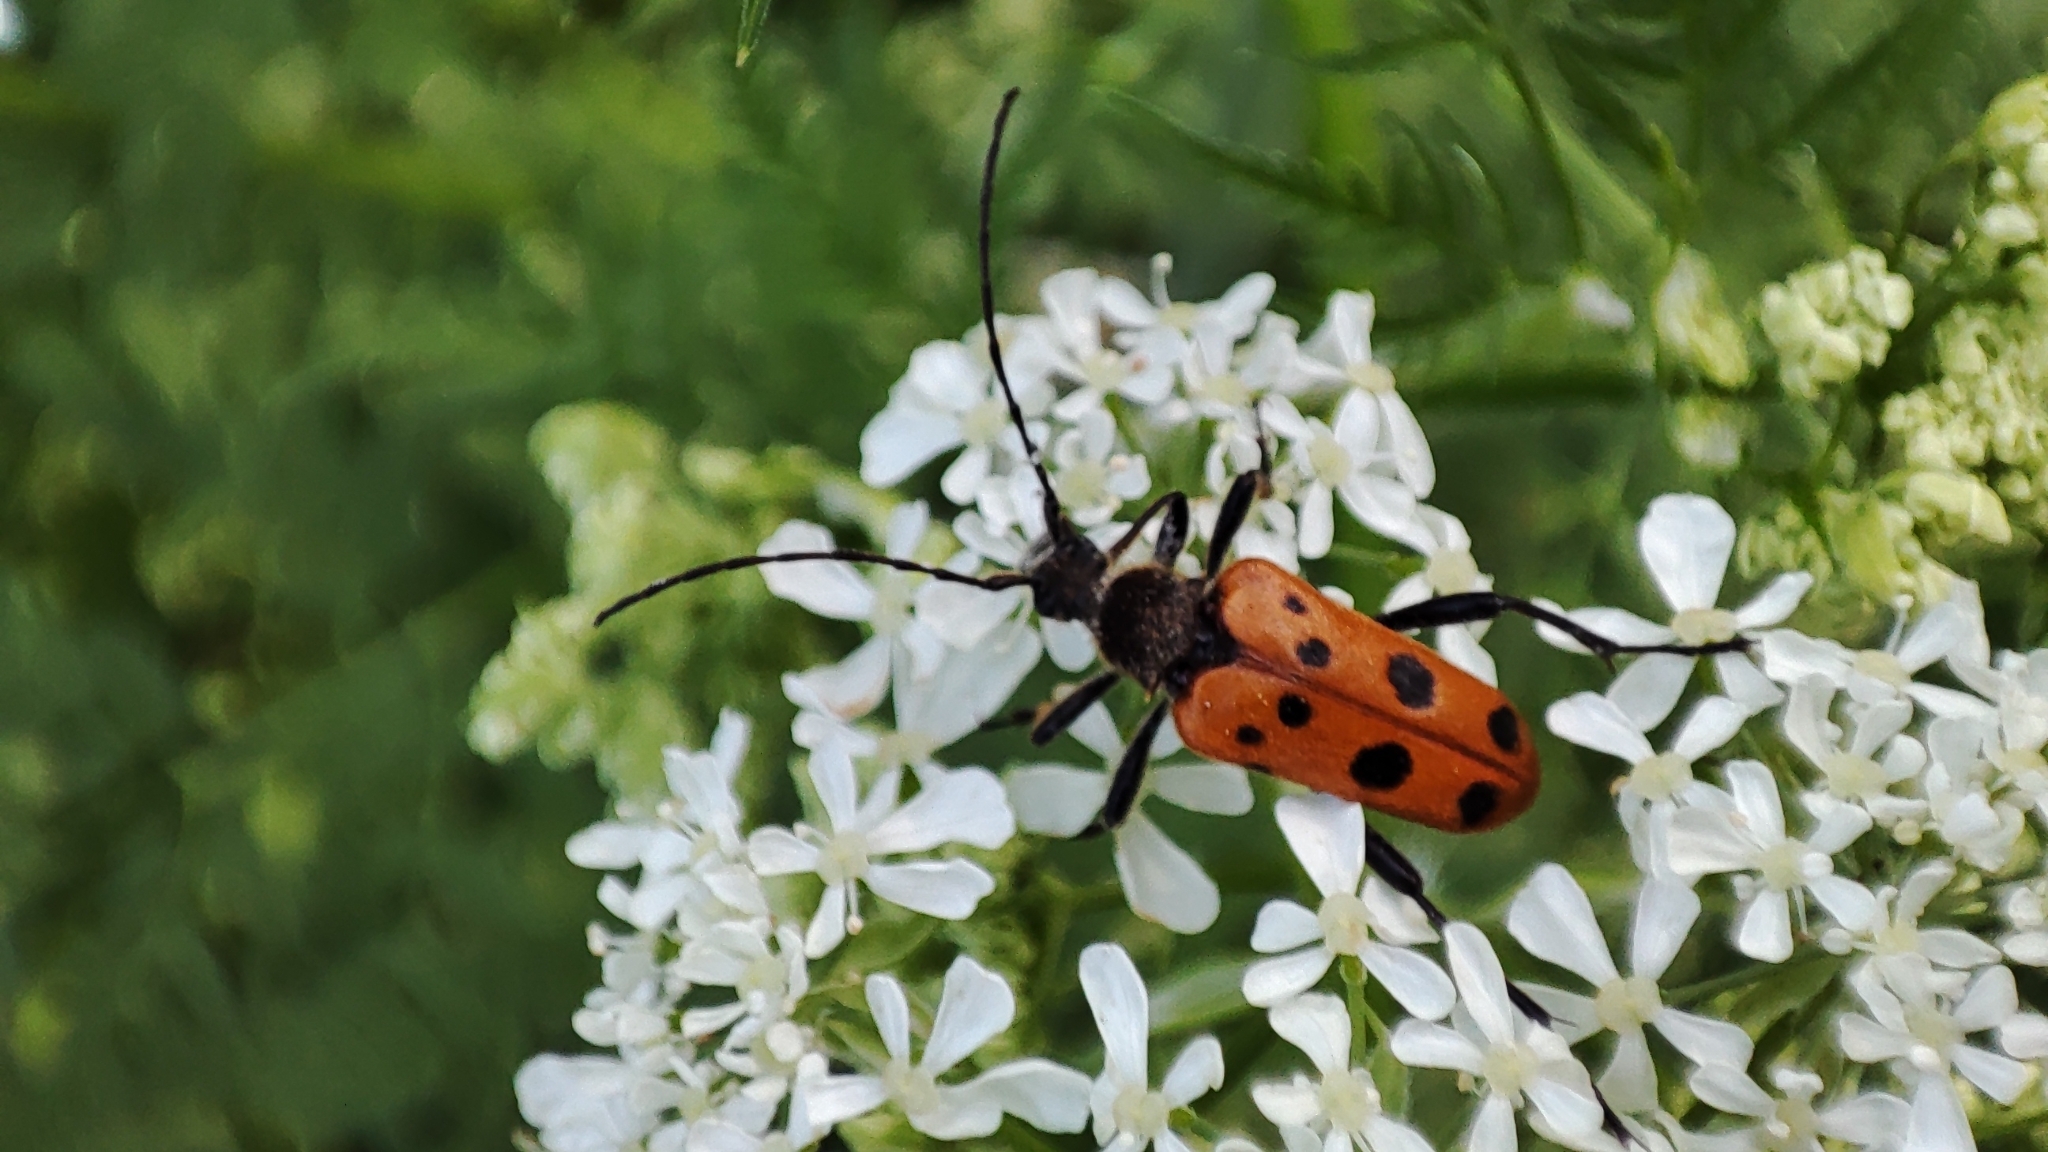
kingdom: Animalia
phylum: Arthropoda
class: Insecta
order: Coleoptera
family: Cerambycidae
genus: Oedecnema
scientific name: Oedecnema gebleri
